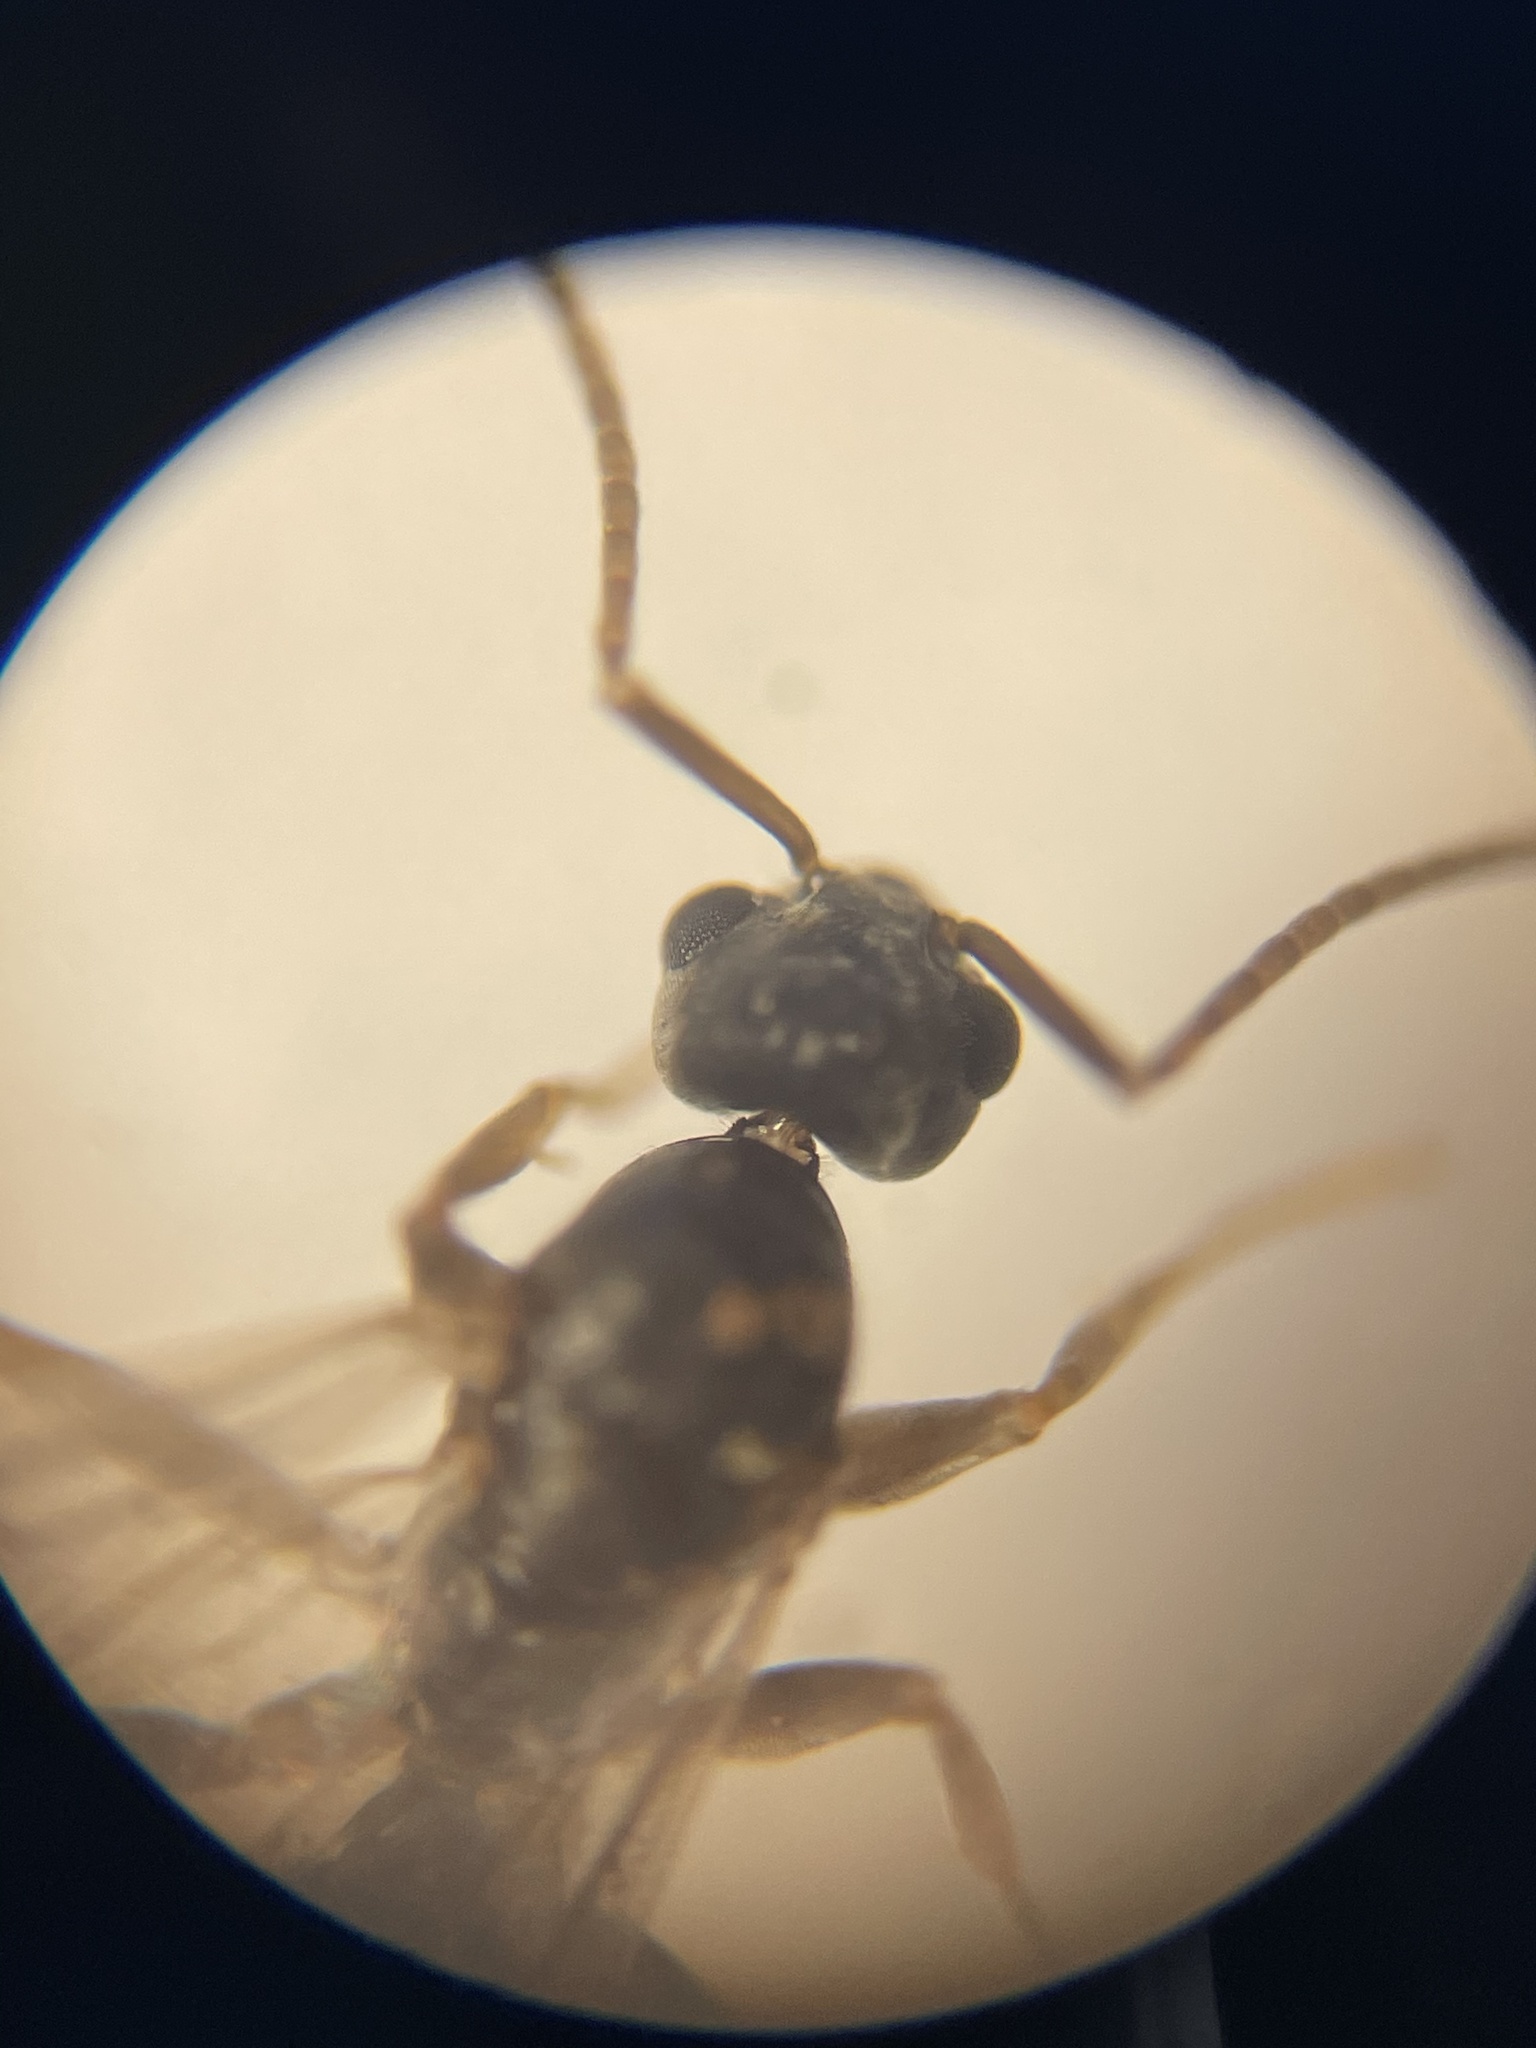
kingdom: Animalia
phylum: Arthropoda
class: Insecta
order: Hymenoptera
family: Formicidae
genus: Tapinoma
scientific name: Tapinoma sessile
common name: Odorous house ant
